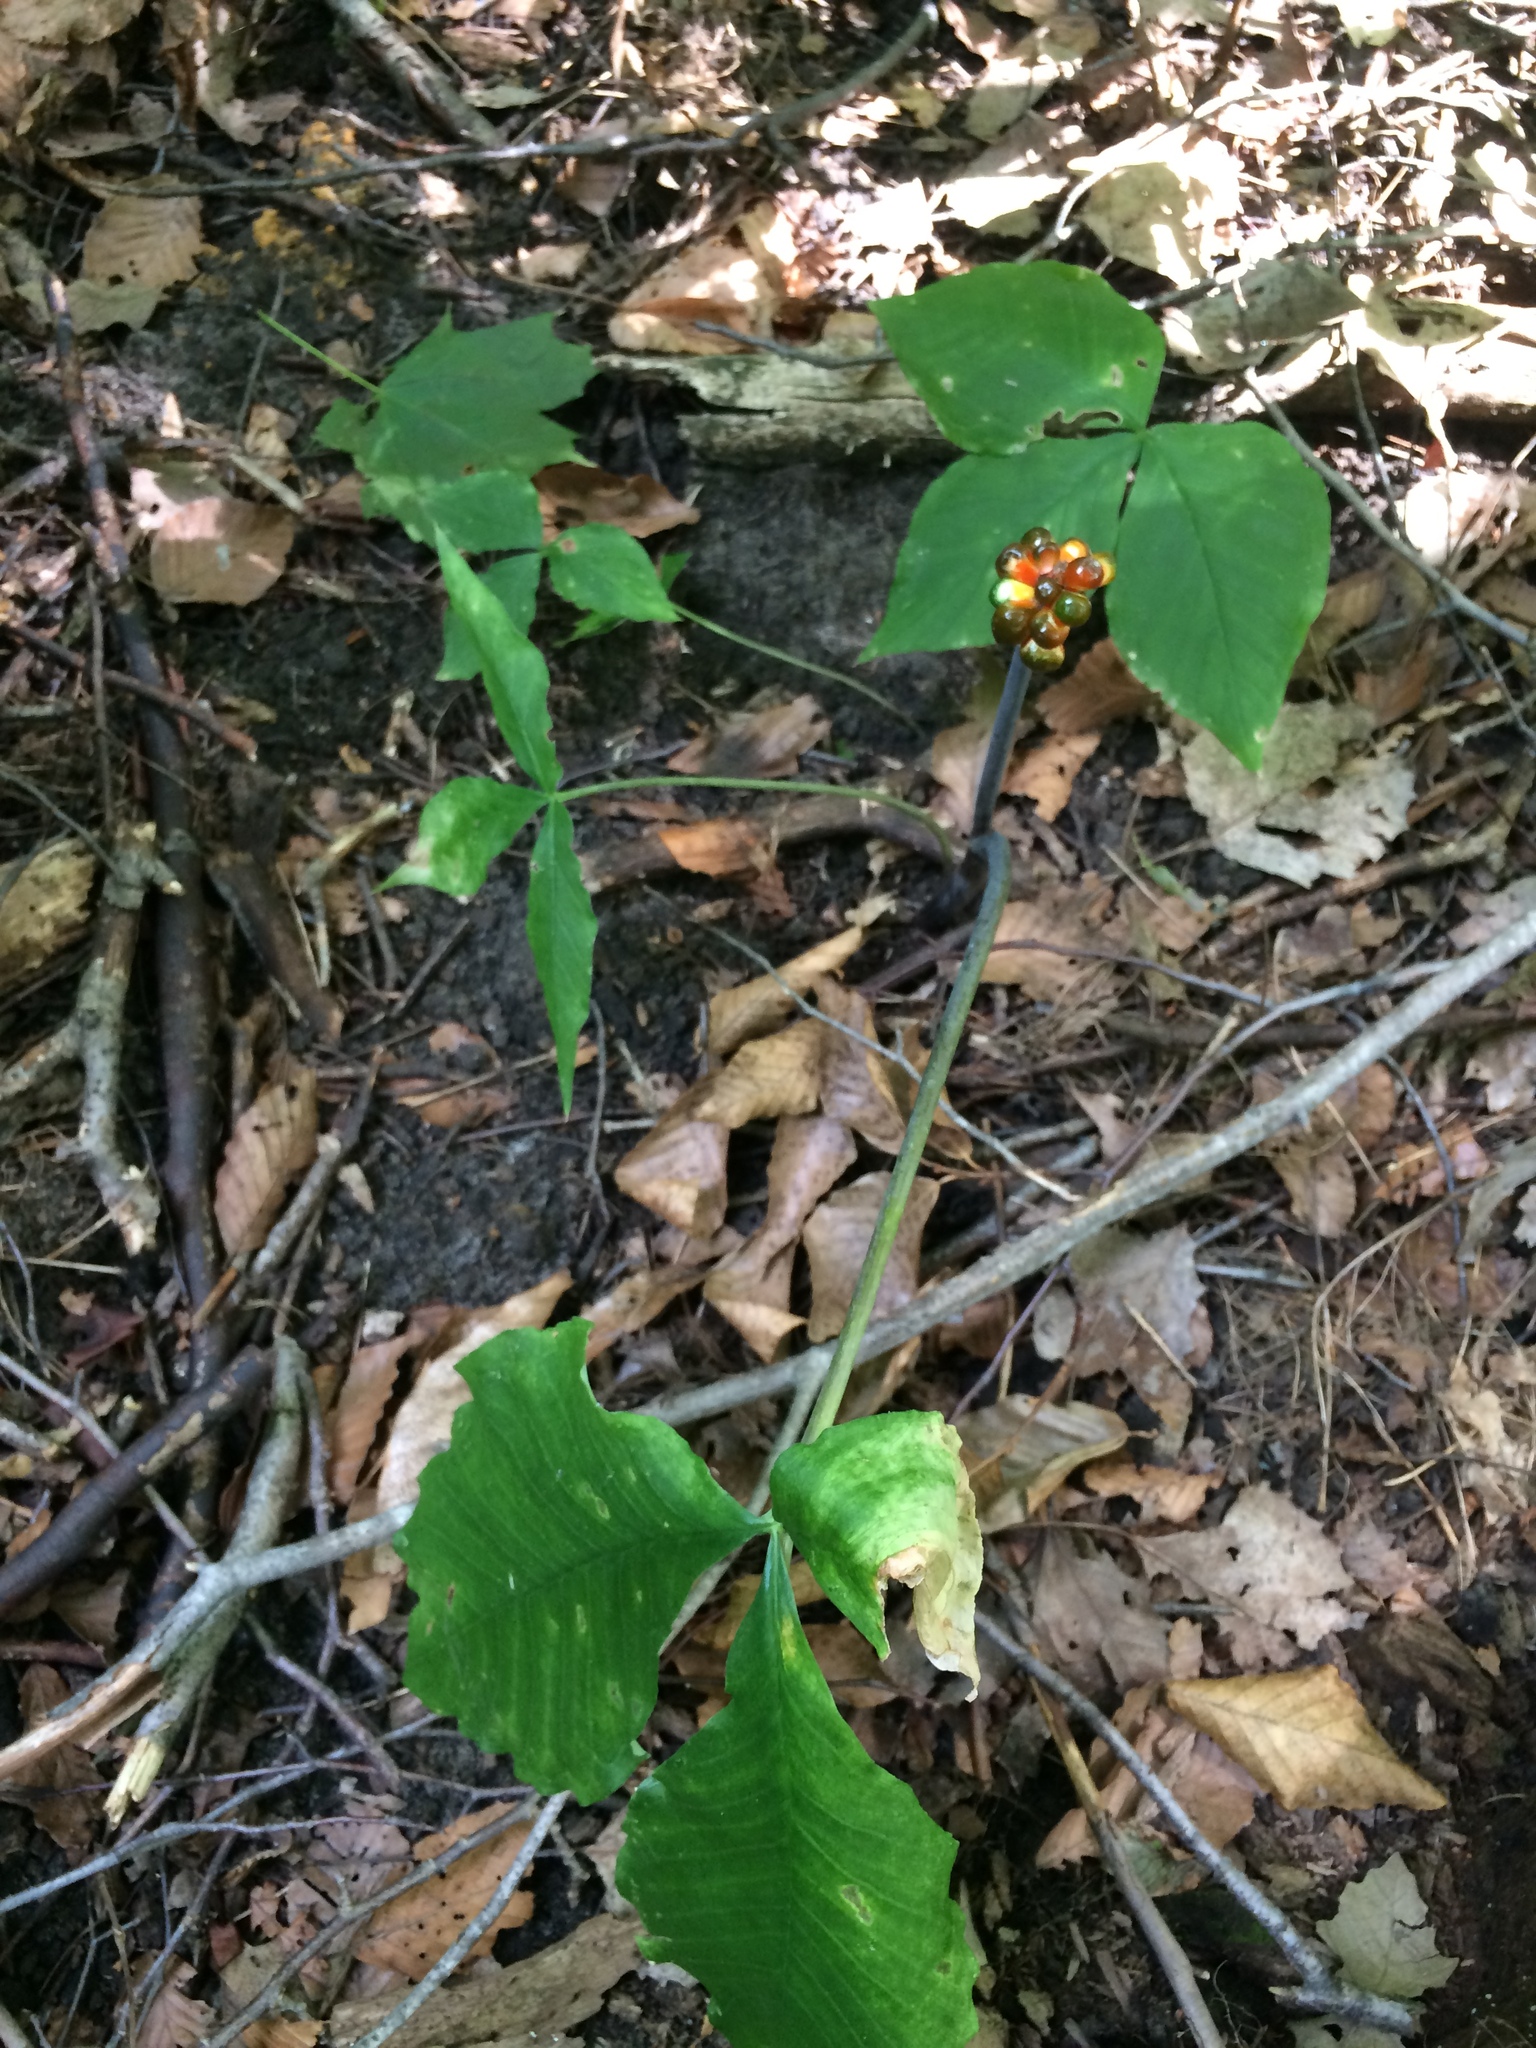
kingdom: Plantae
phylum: Tracheophyta
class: Liliopsida
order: Alismatales
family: Araceae
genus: Arisaema
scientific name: Arisaema triphyllum
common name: Jack-in-the-pulpit
